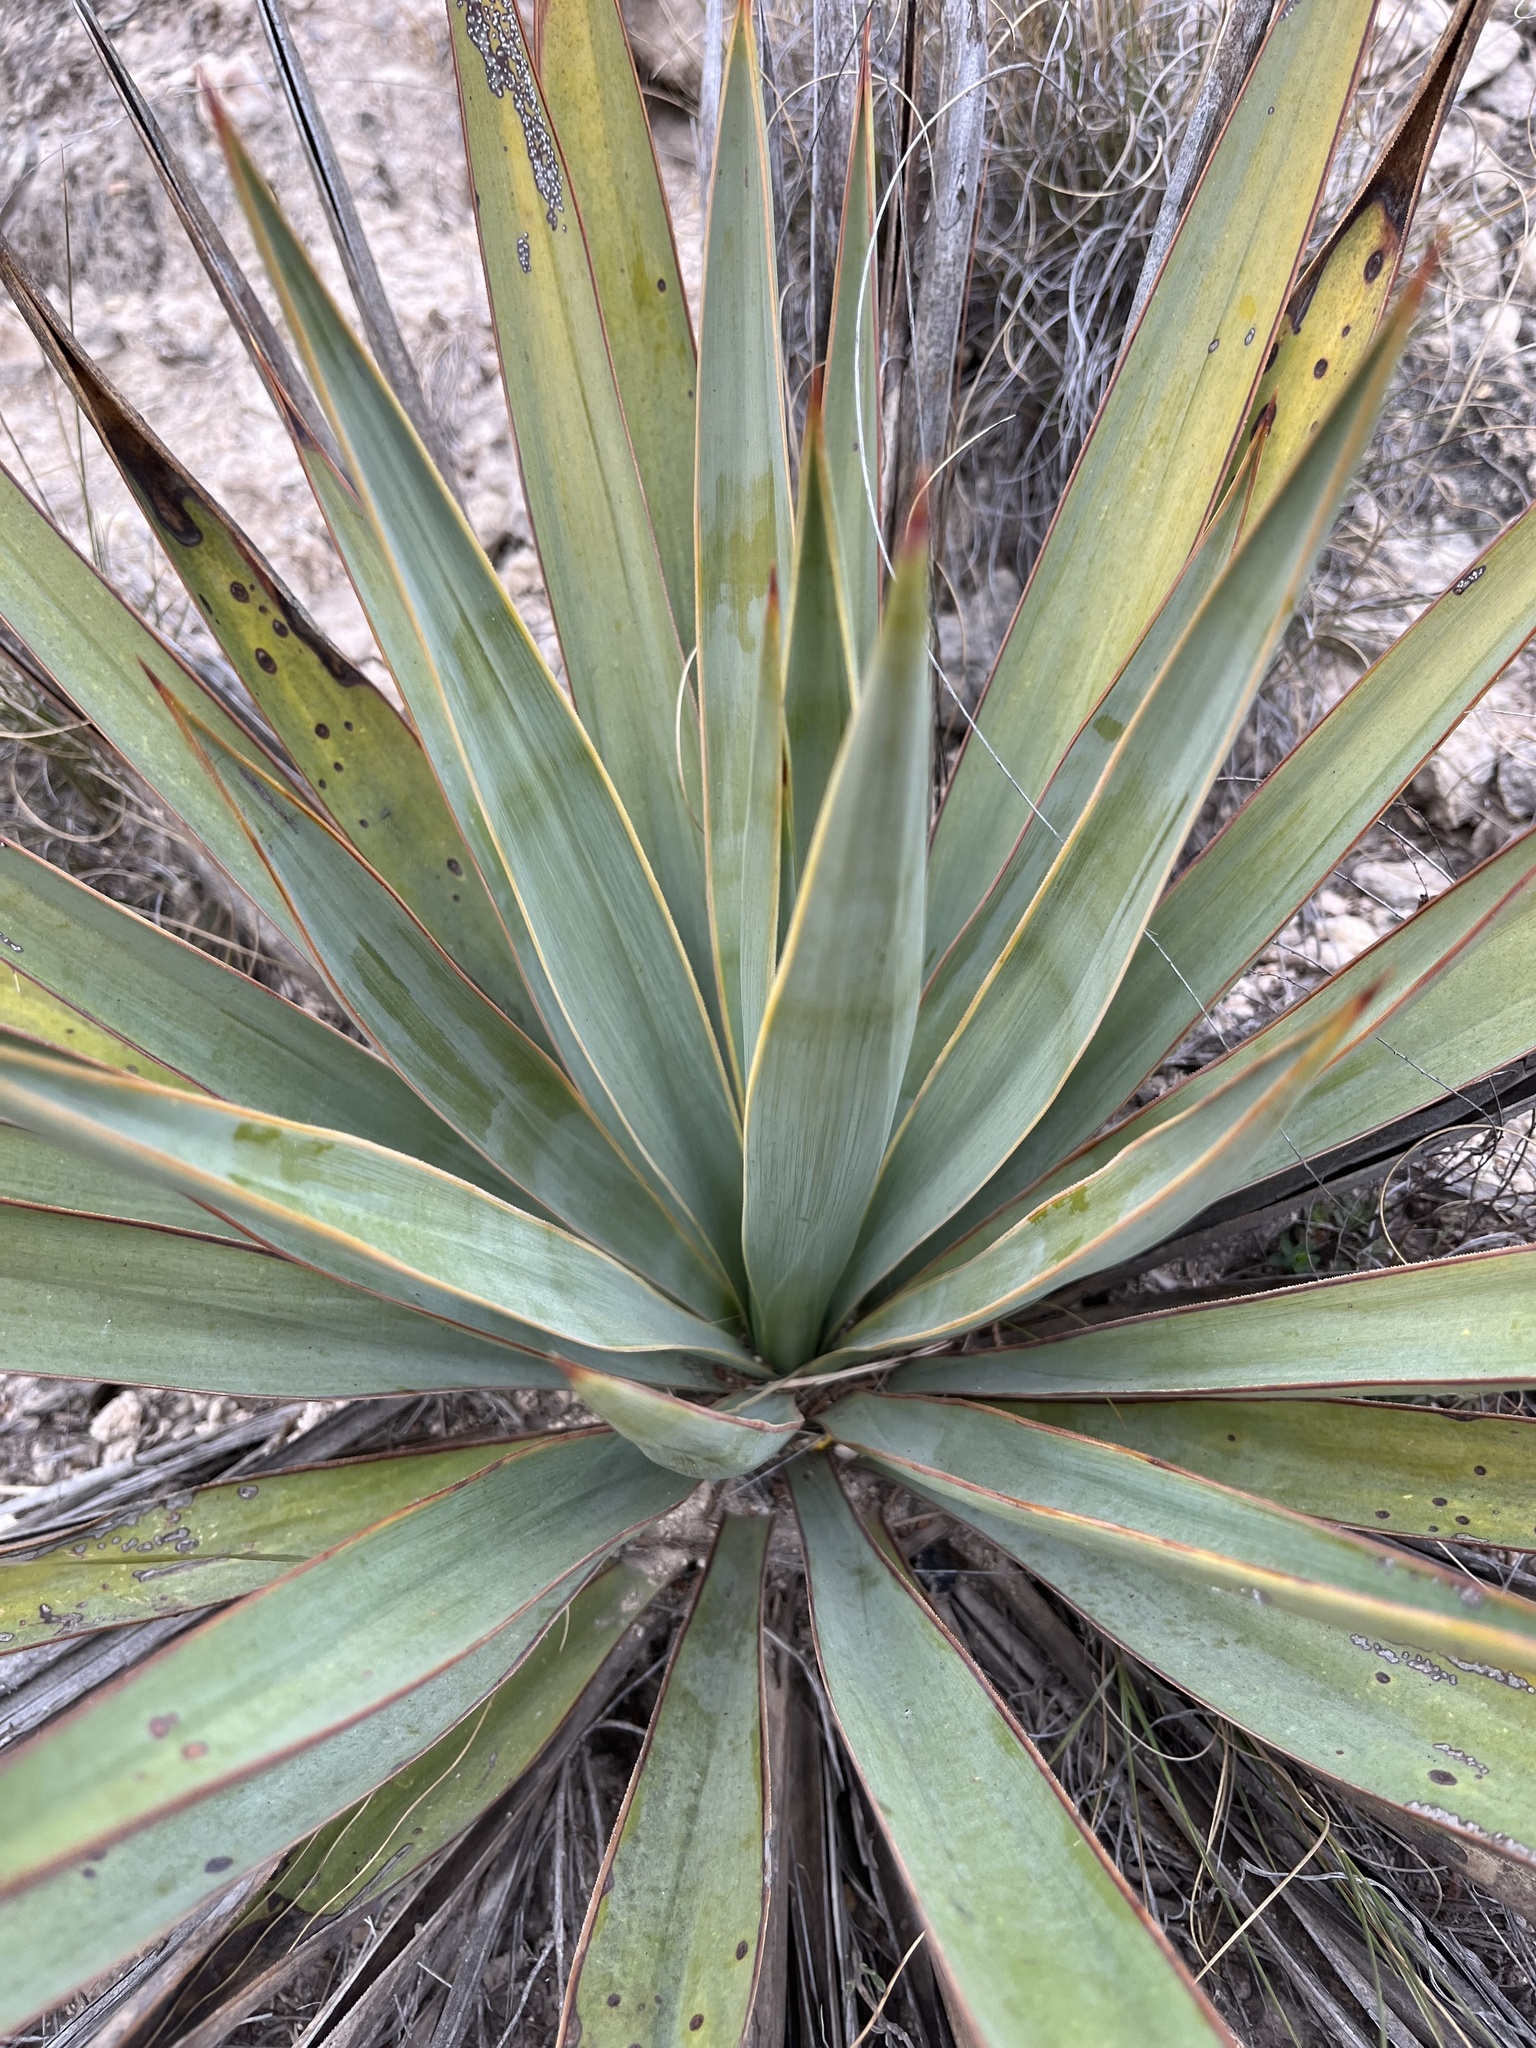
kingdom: Plantae
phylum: Tracheophyta
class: Liliopsida
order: Asparagales
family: Asparagaceae
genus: Yucca
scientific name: Yucca pallida
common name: Pale leaf yucca
